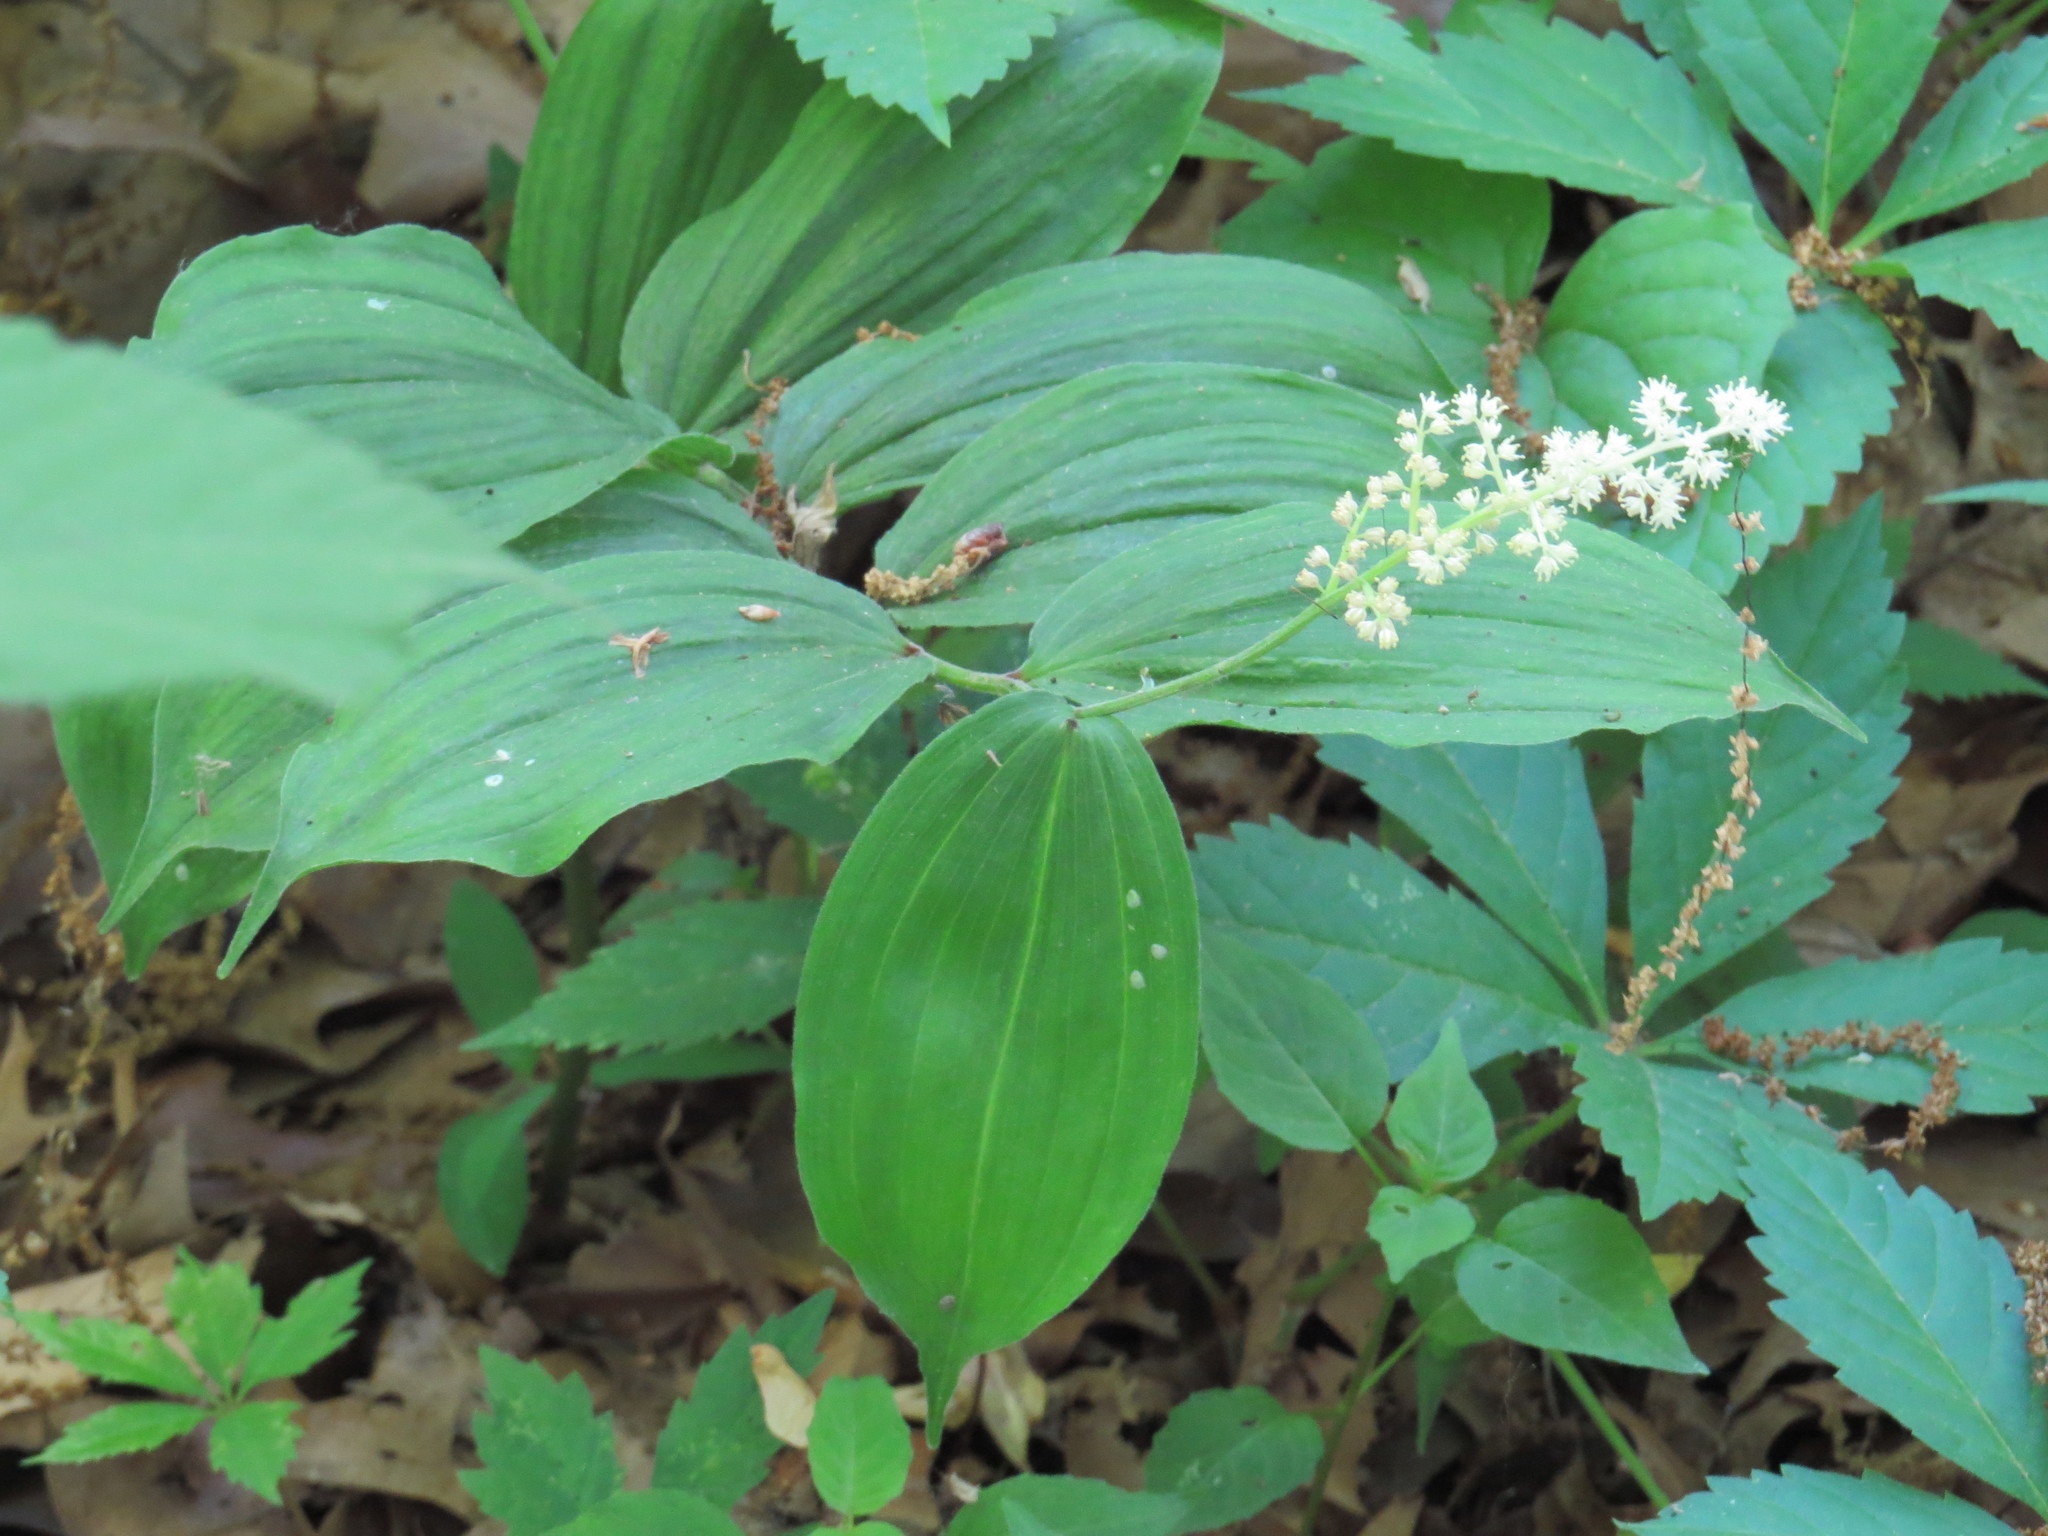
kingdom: Plantae
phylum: Tracheophyta
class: Liliopsida
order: Asparagales
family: Asparagaceae
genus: Maianthemum
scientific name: Maianthemum racemosum
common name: False spikenard
